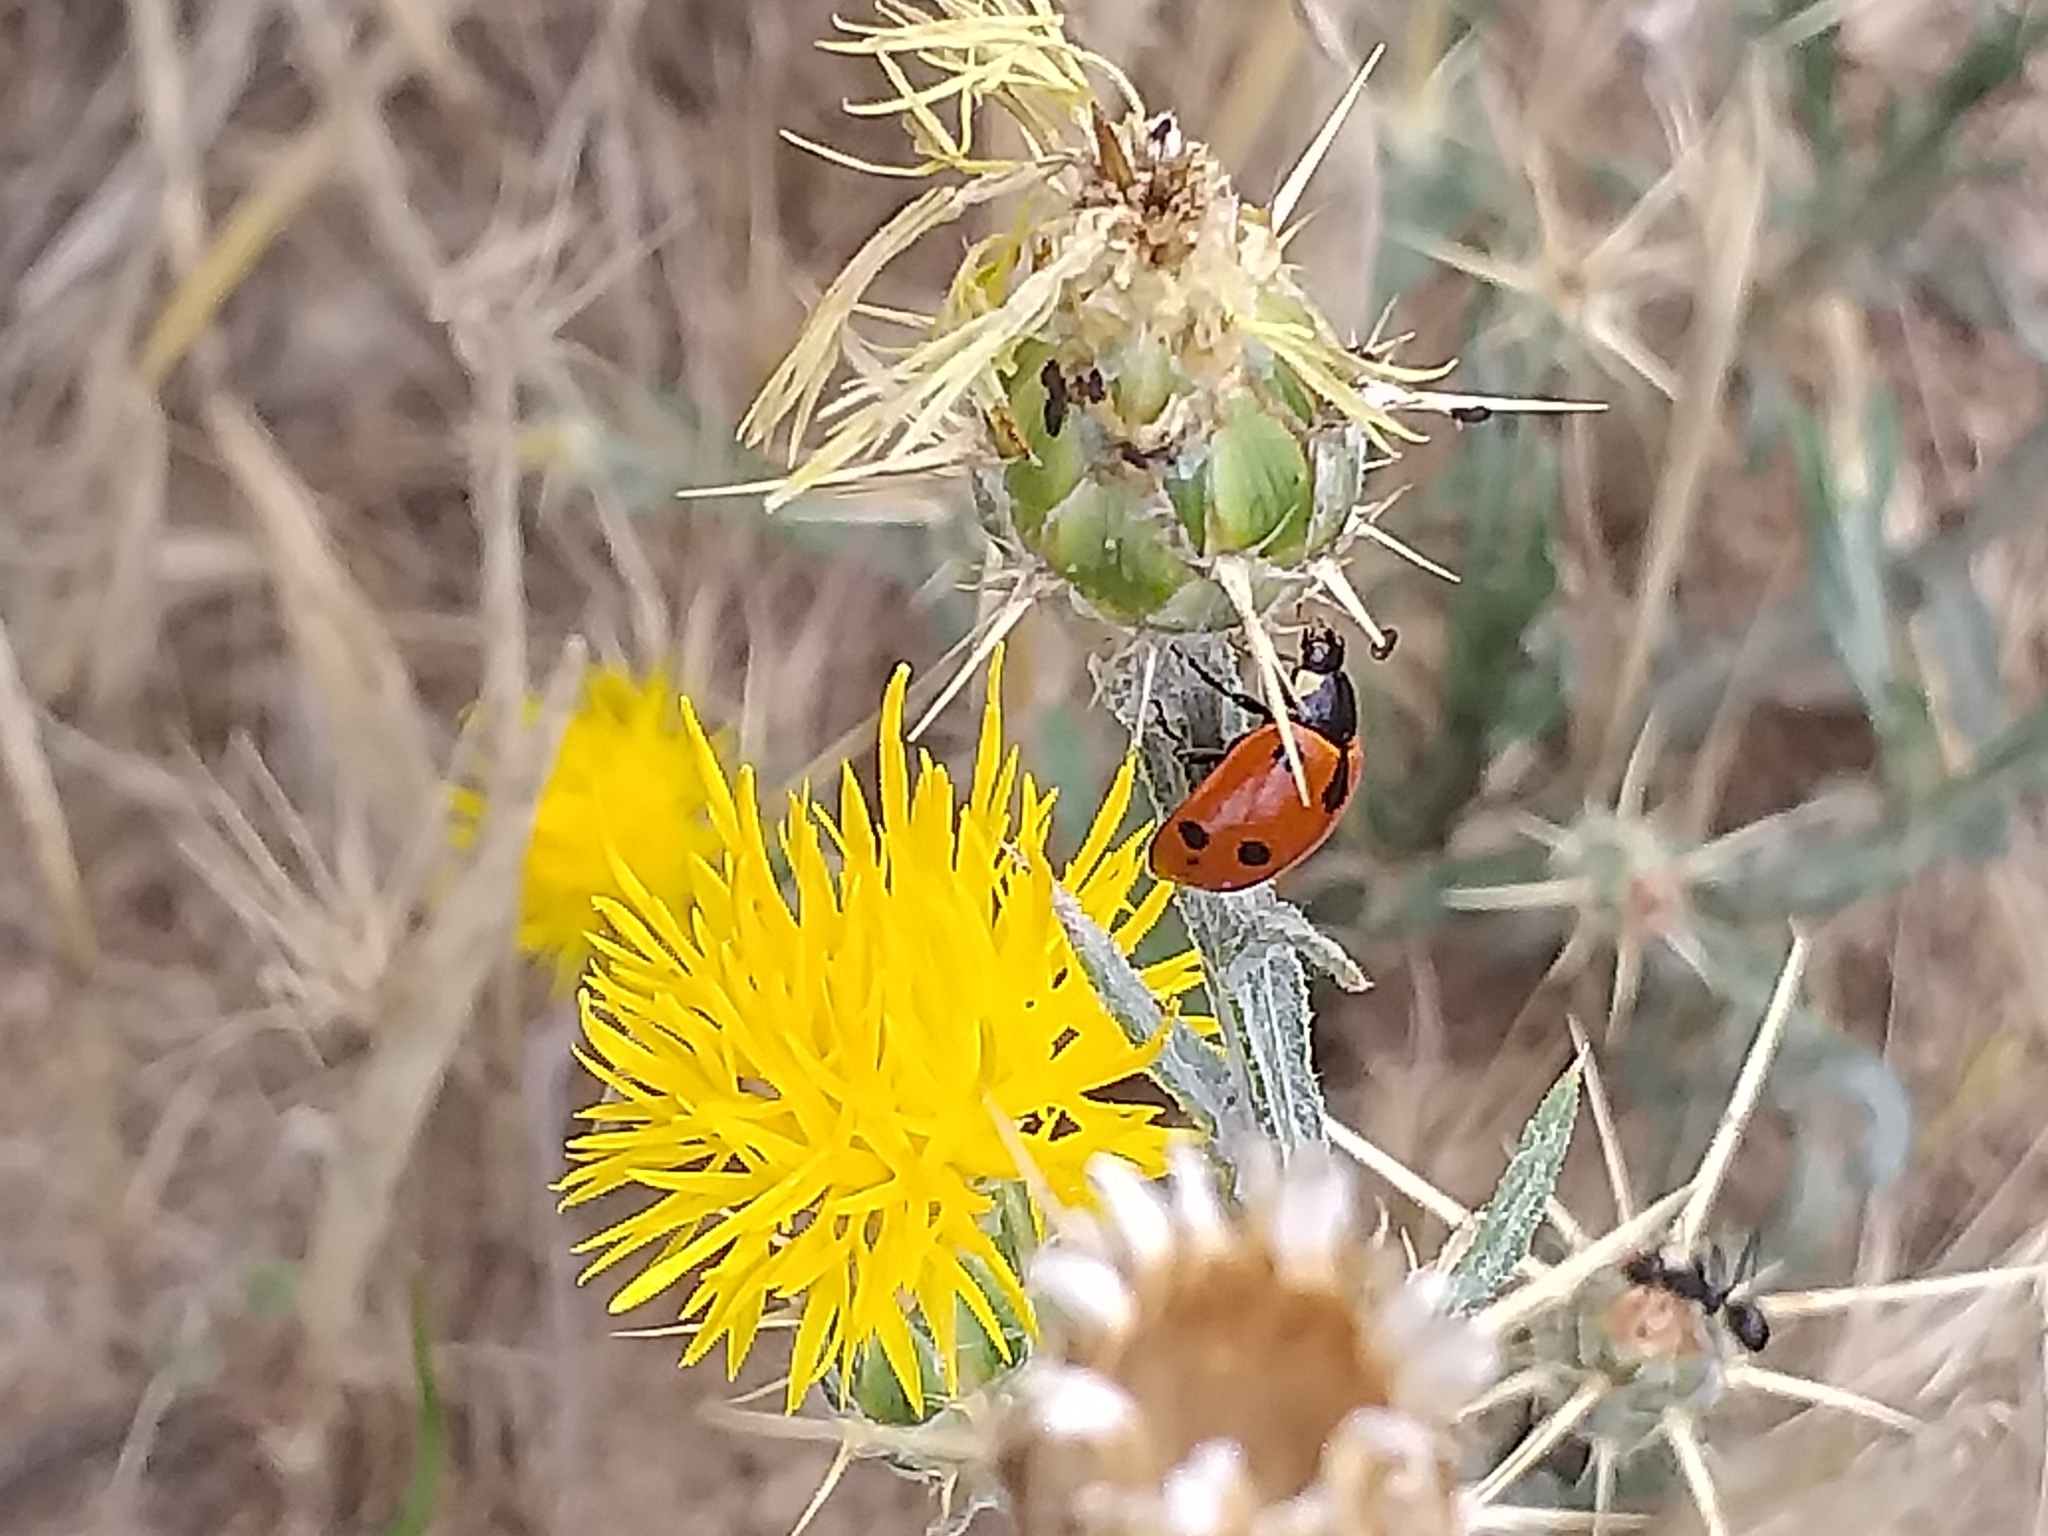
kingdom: Animalia
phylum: Arthropoda
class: Insecta
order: Coleoptera
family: Coccinellidae
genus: Ceratomegilla
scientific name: Ceratomegilla undecimnotata
